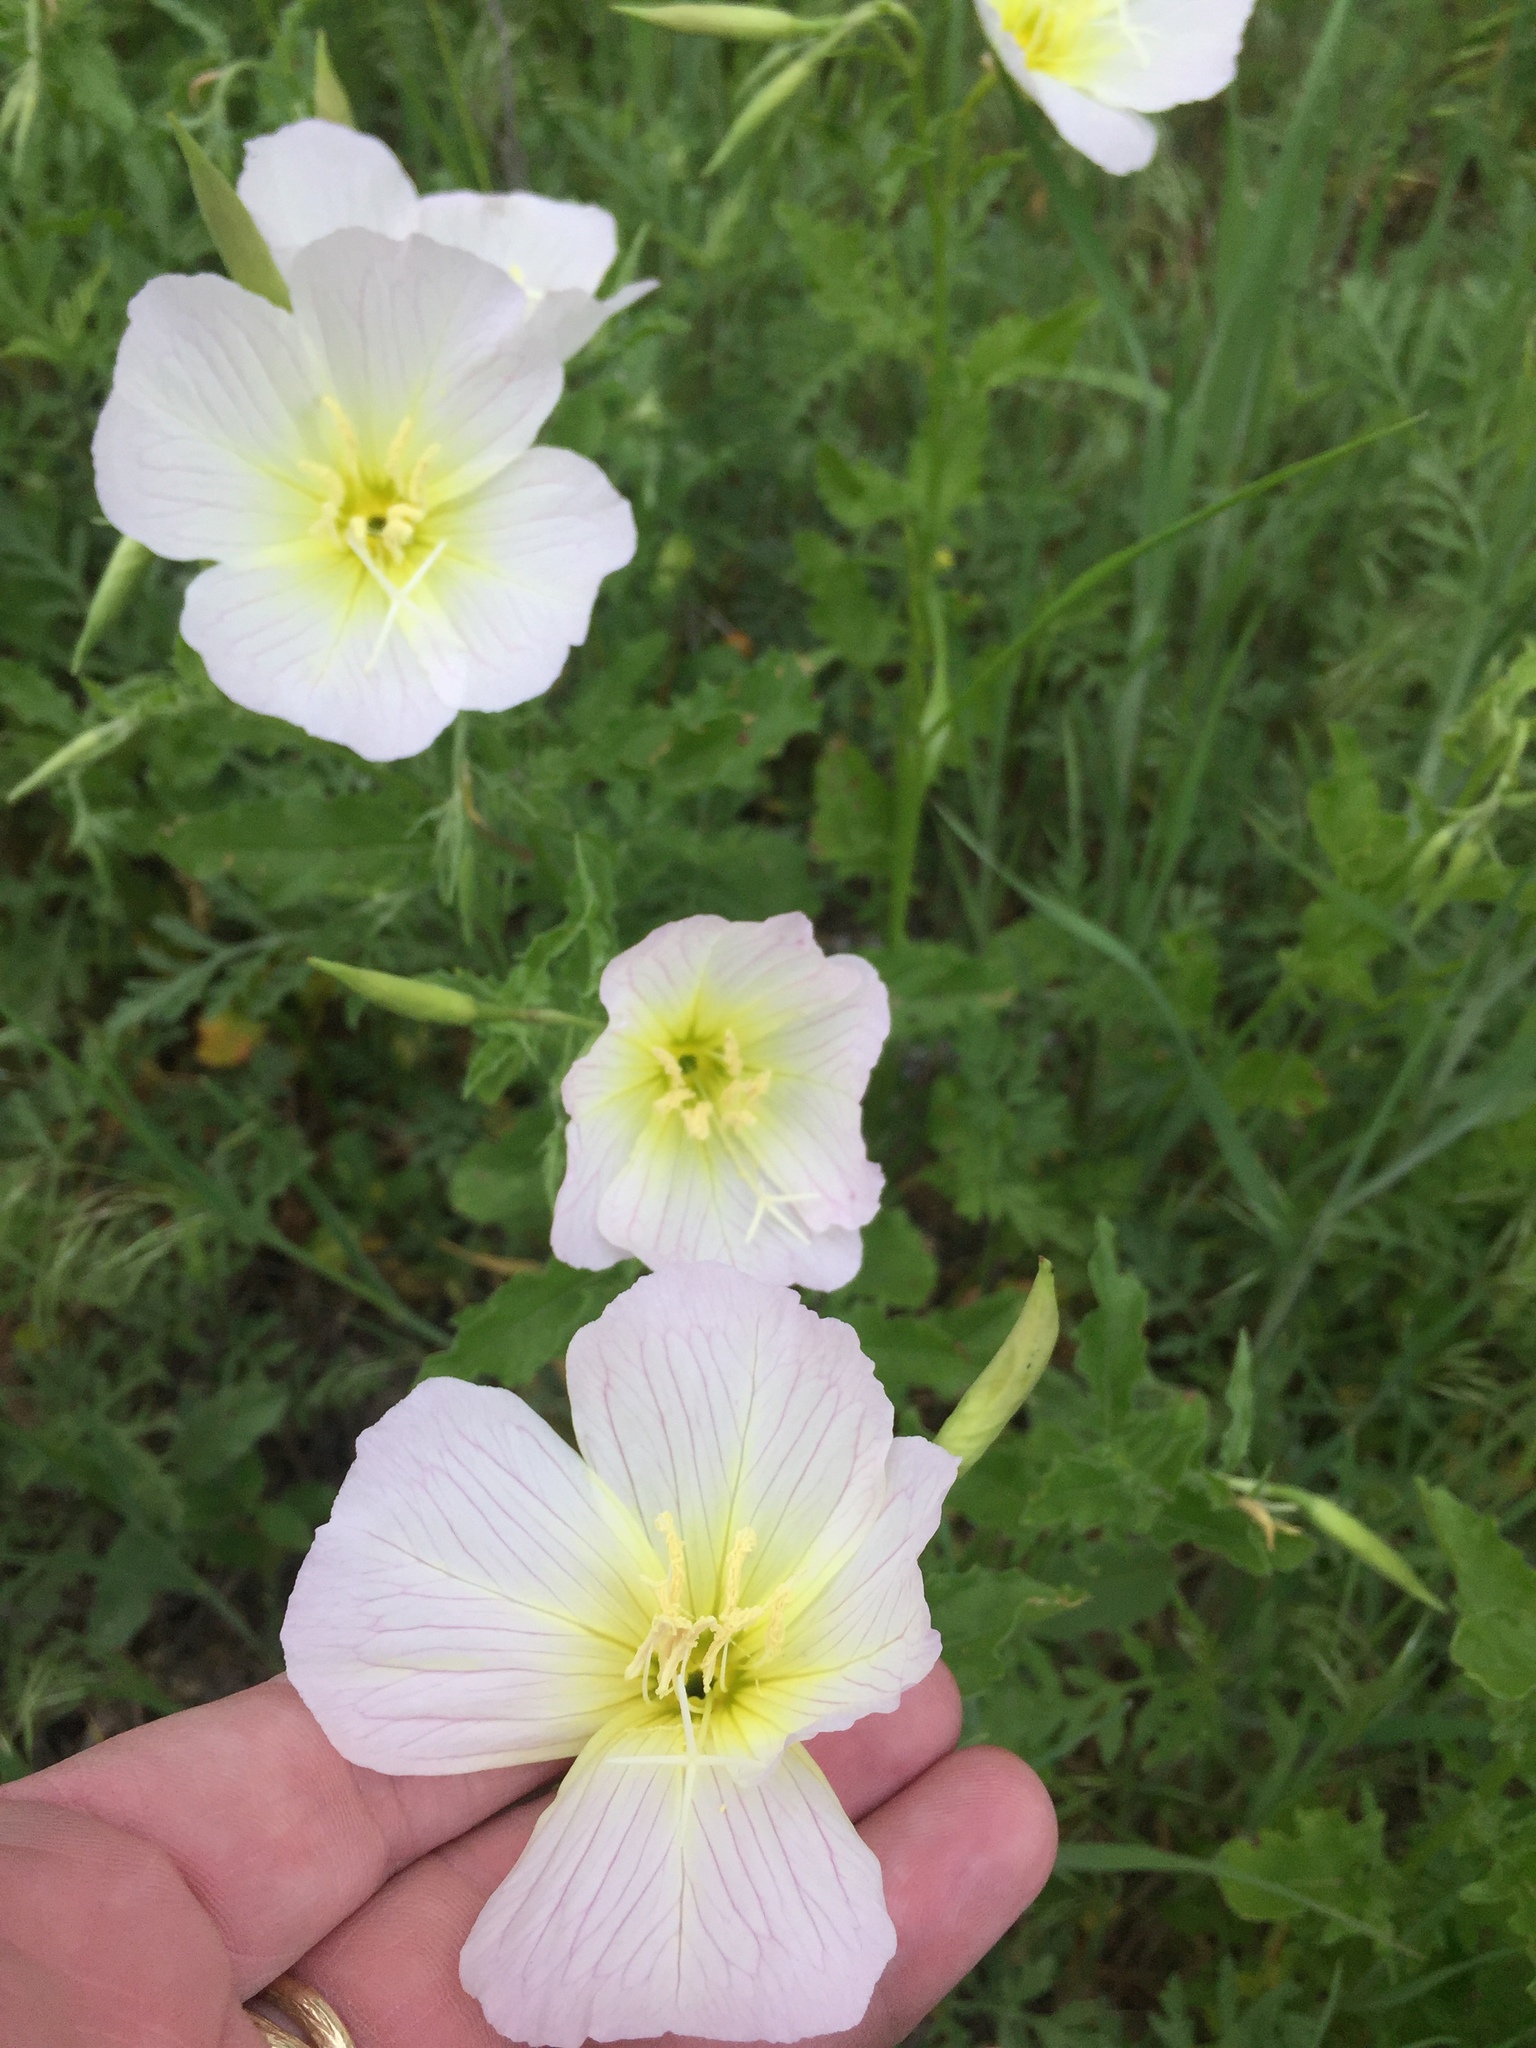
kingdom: Plantae
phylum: Tracheophyta
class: Magnoliopsida
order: Myrtales
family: Onagraceae
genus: Oenothera
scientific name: Oenothera speciosa
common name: White evening-primrose
